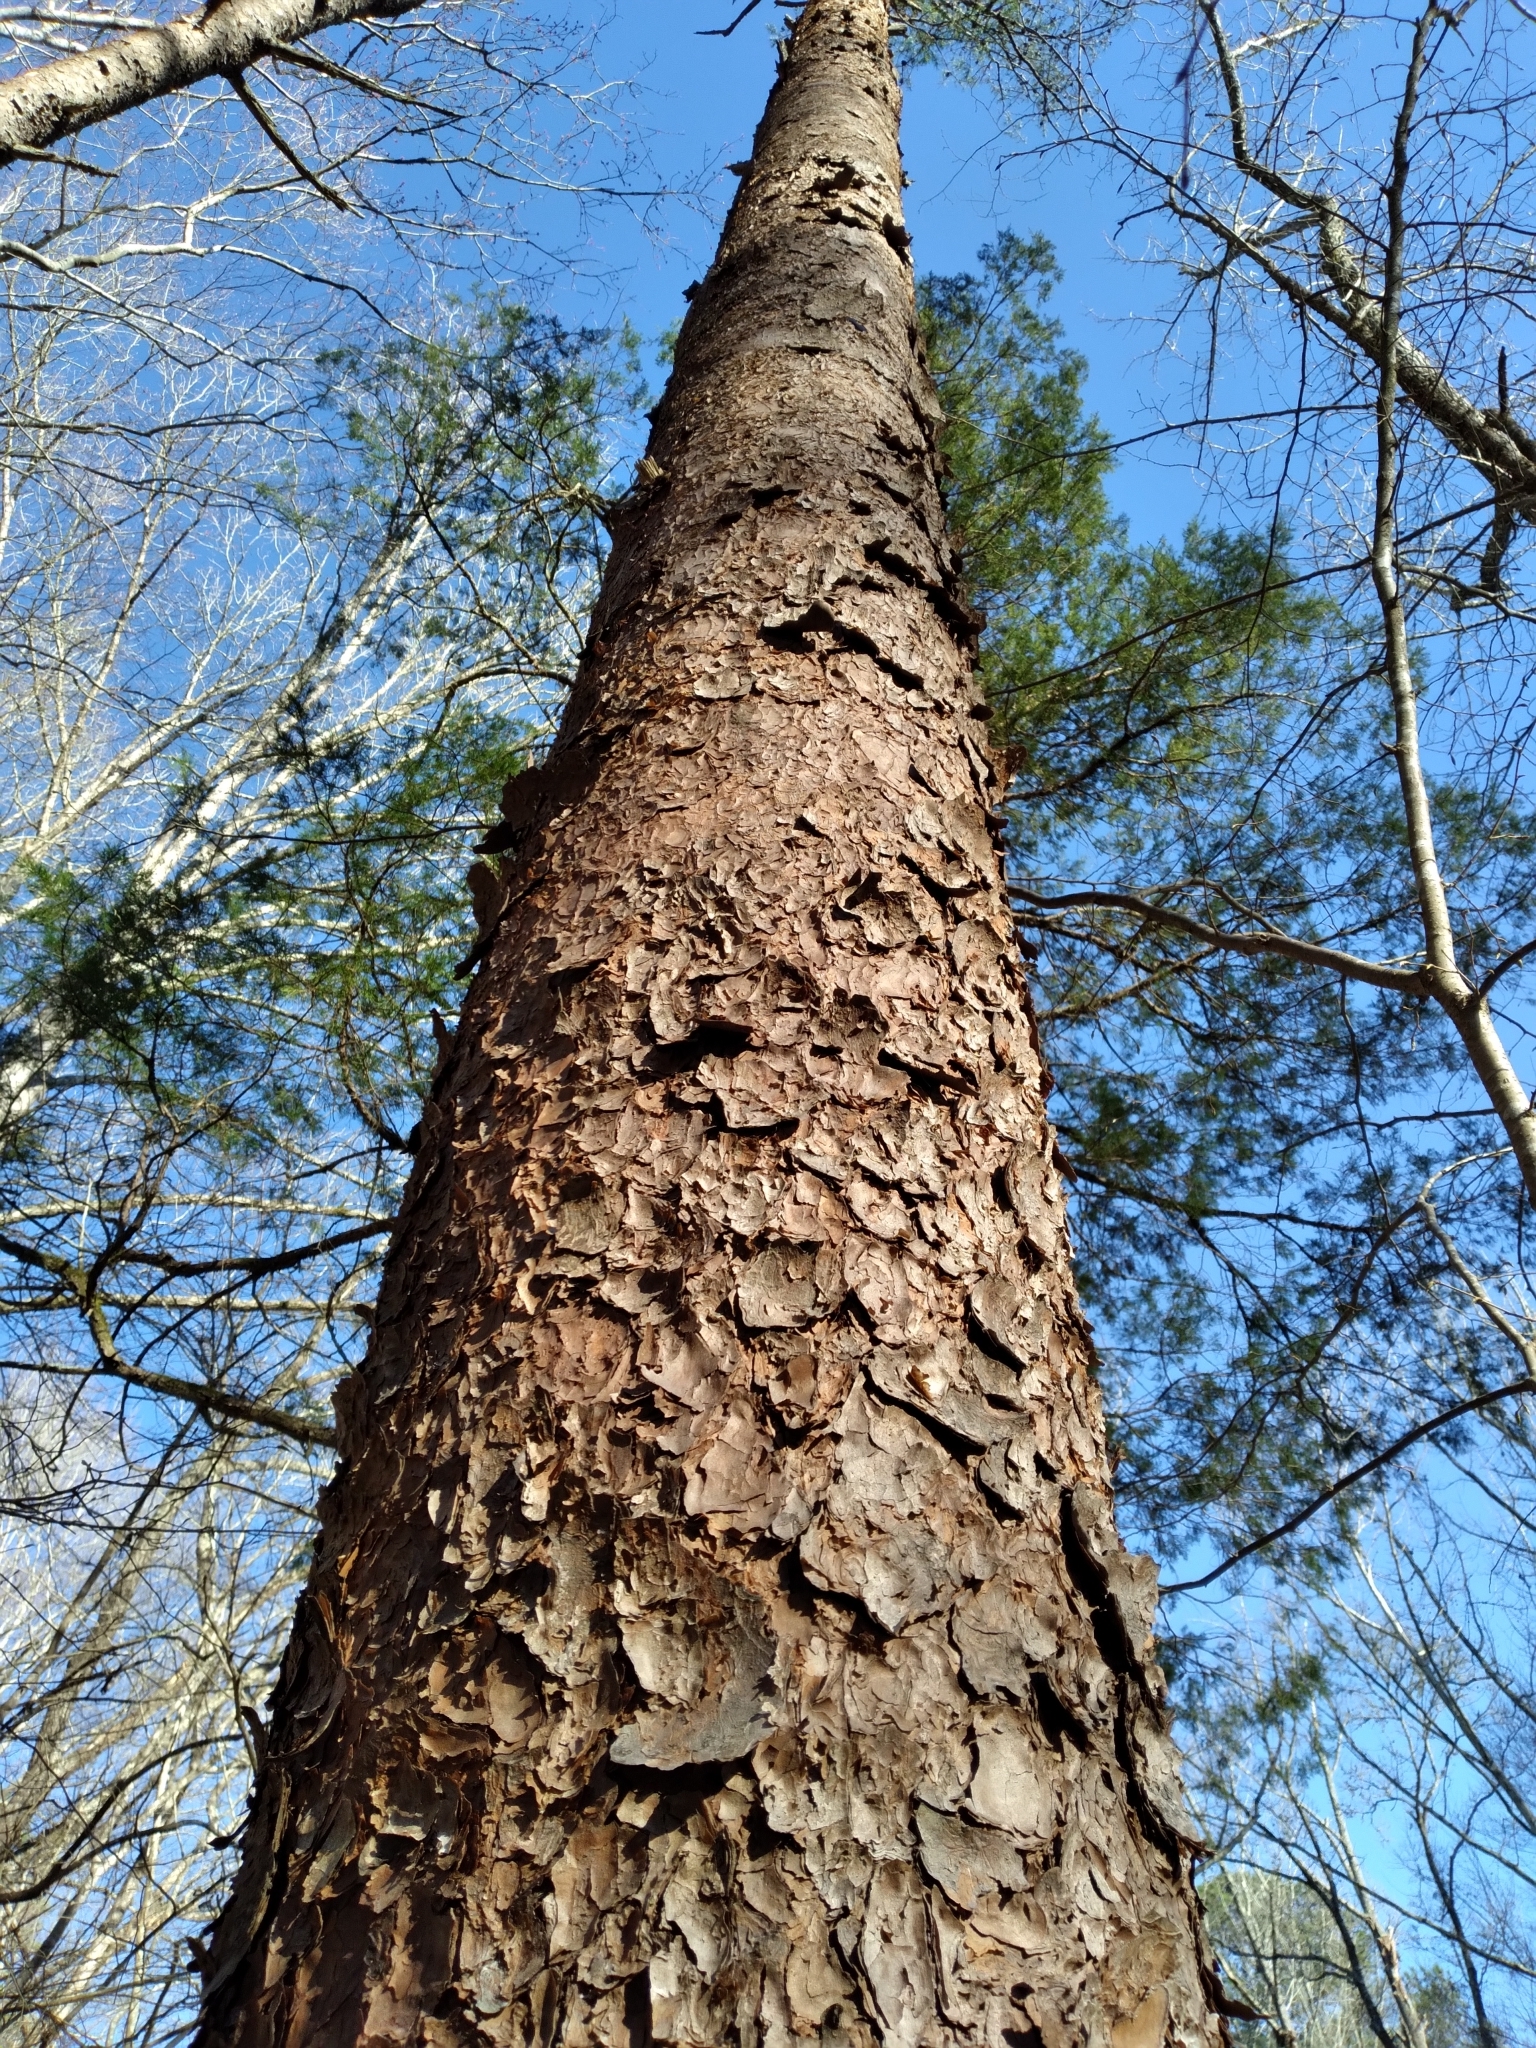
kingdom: Plantae
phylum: Tracheophyta
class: Pinopsida
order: Pinales
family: Pinaceae
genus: Pinus
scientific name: Pinus virginiana
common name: Scrub pine
